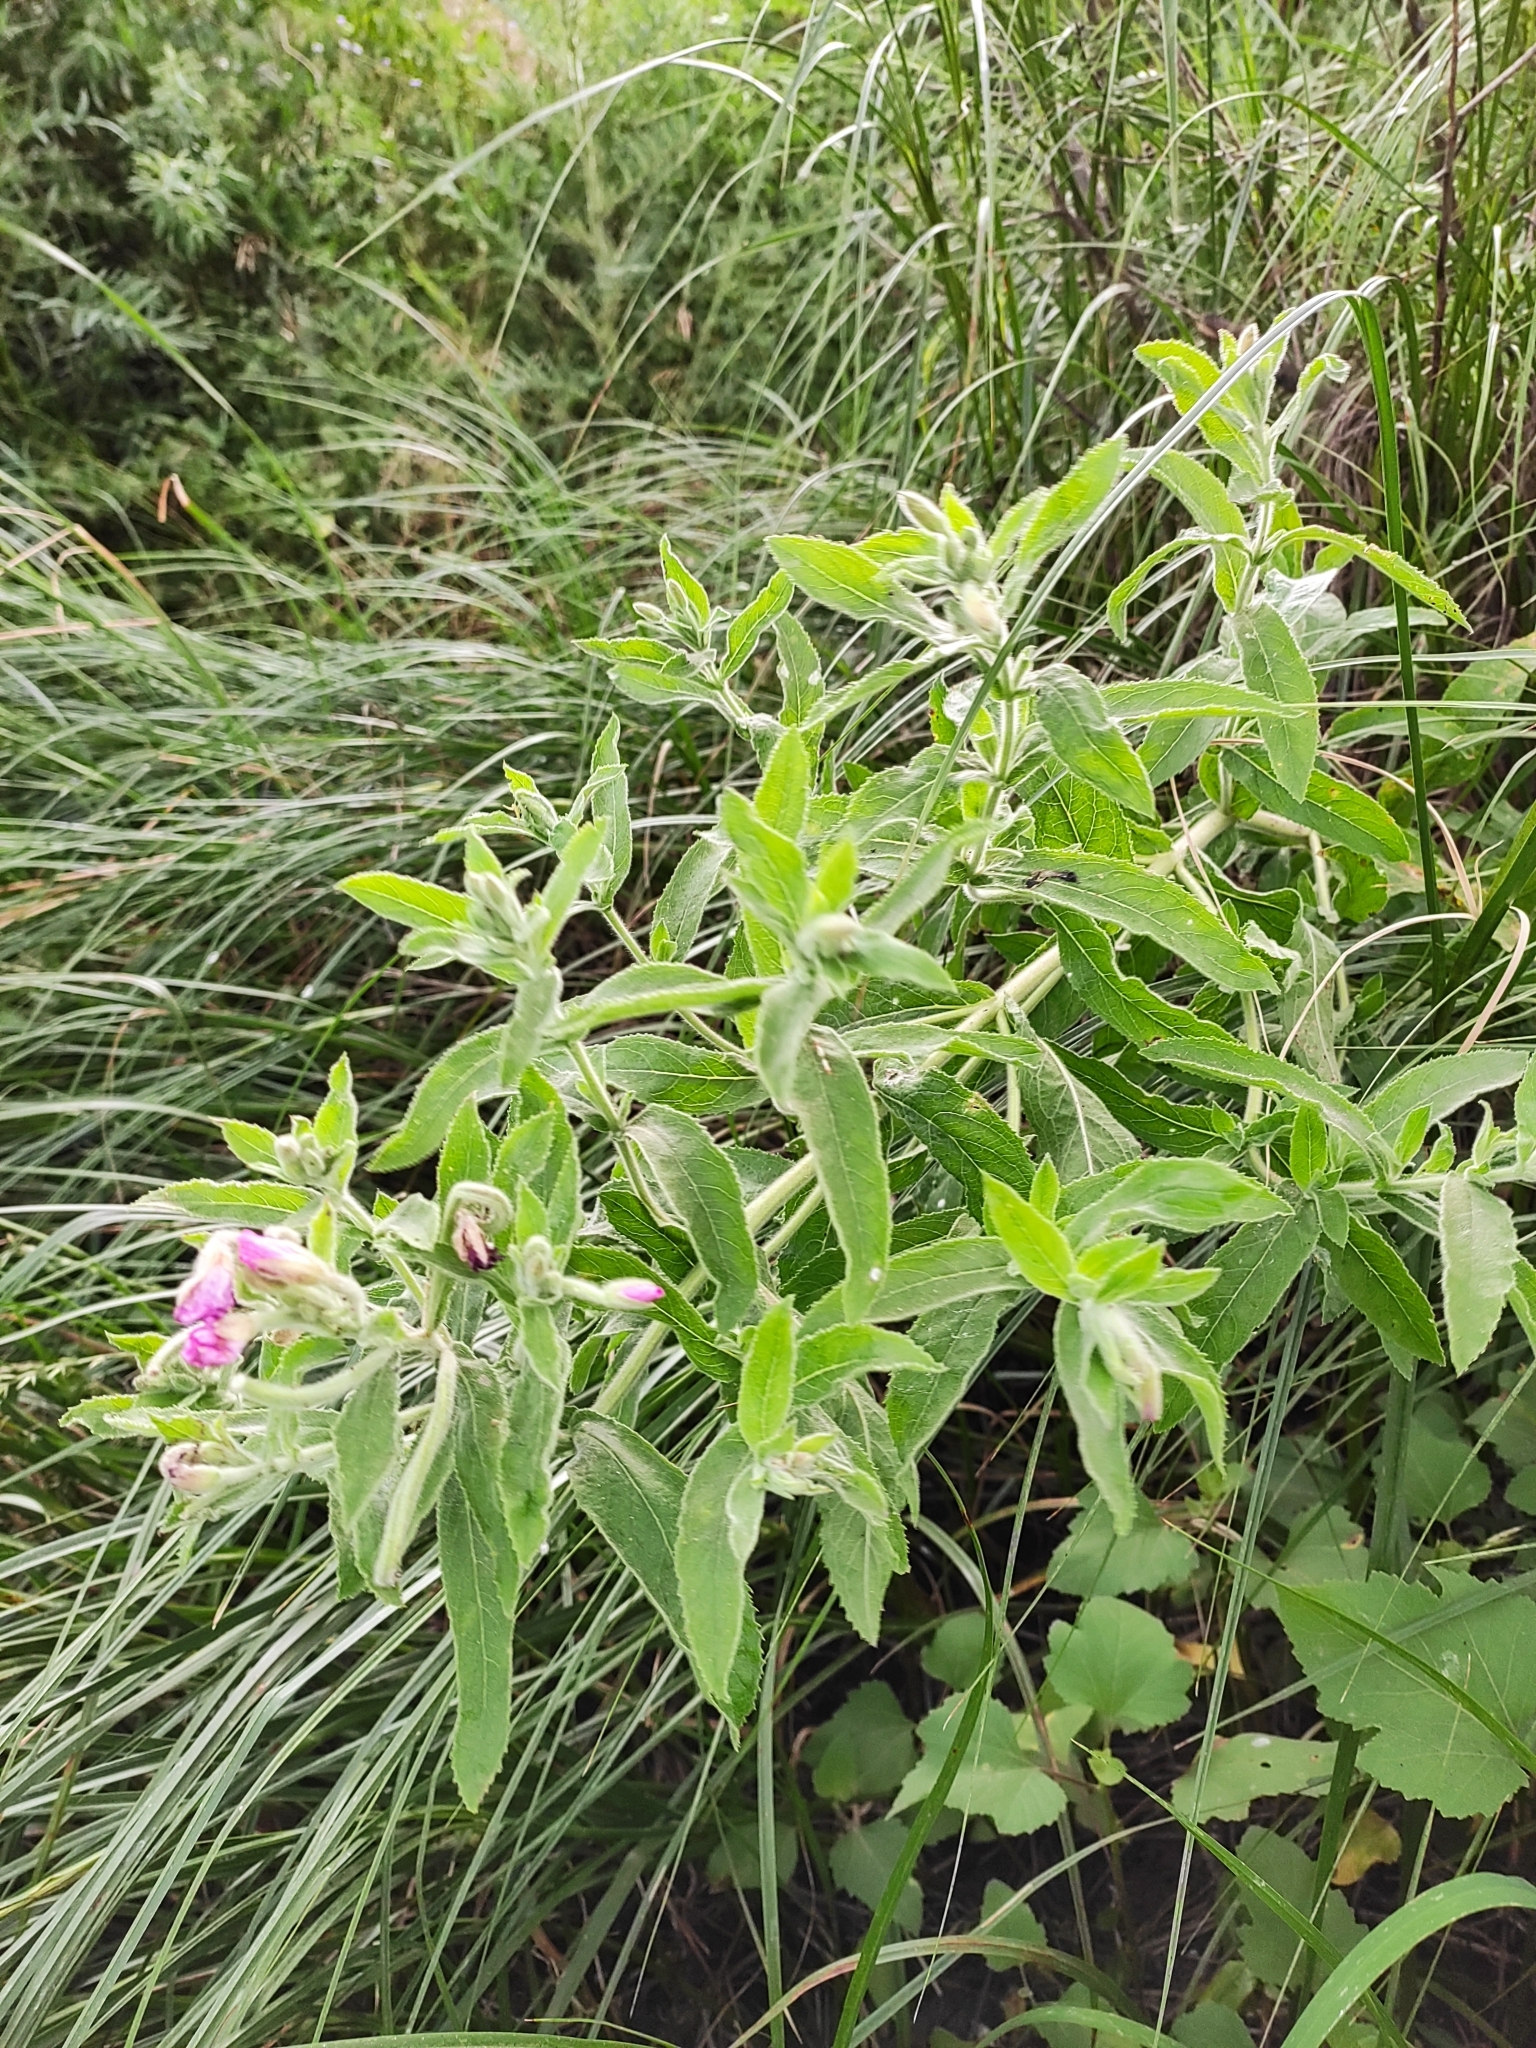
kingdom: Plantae
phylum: Tracheophyta
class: Magnoliopsida
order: Myrtales
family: Onagraceae
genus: Epilobium
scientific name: Epilobium hirsutum
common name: Great willowherb
